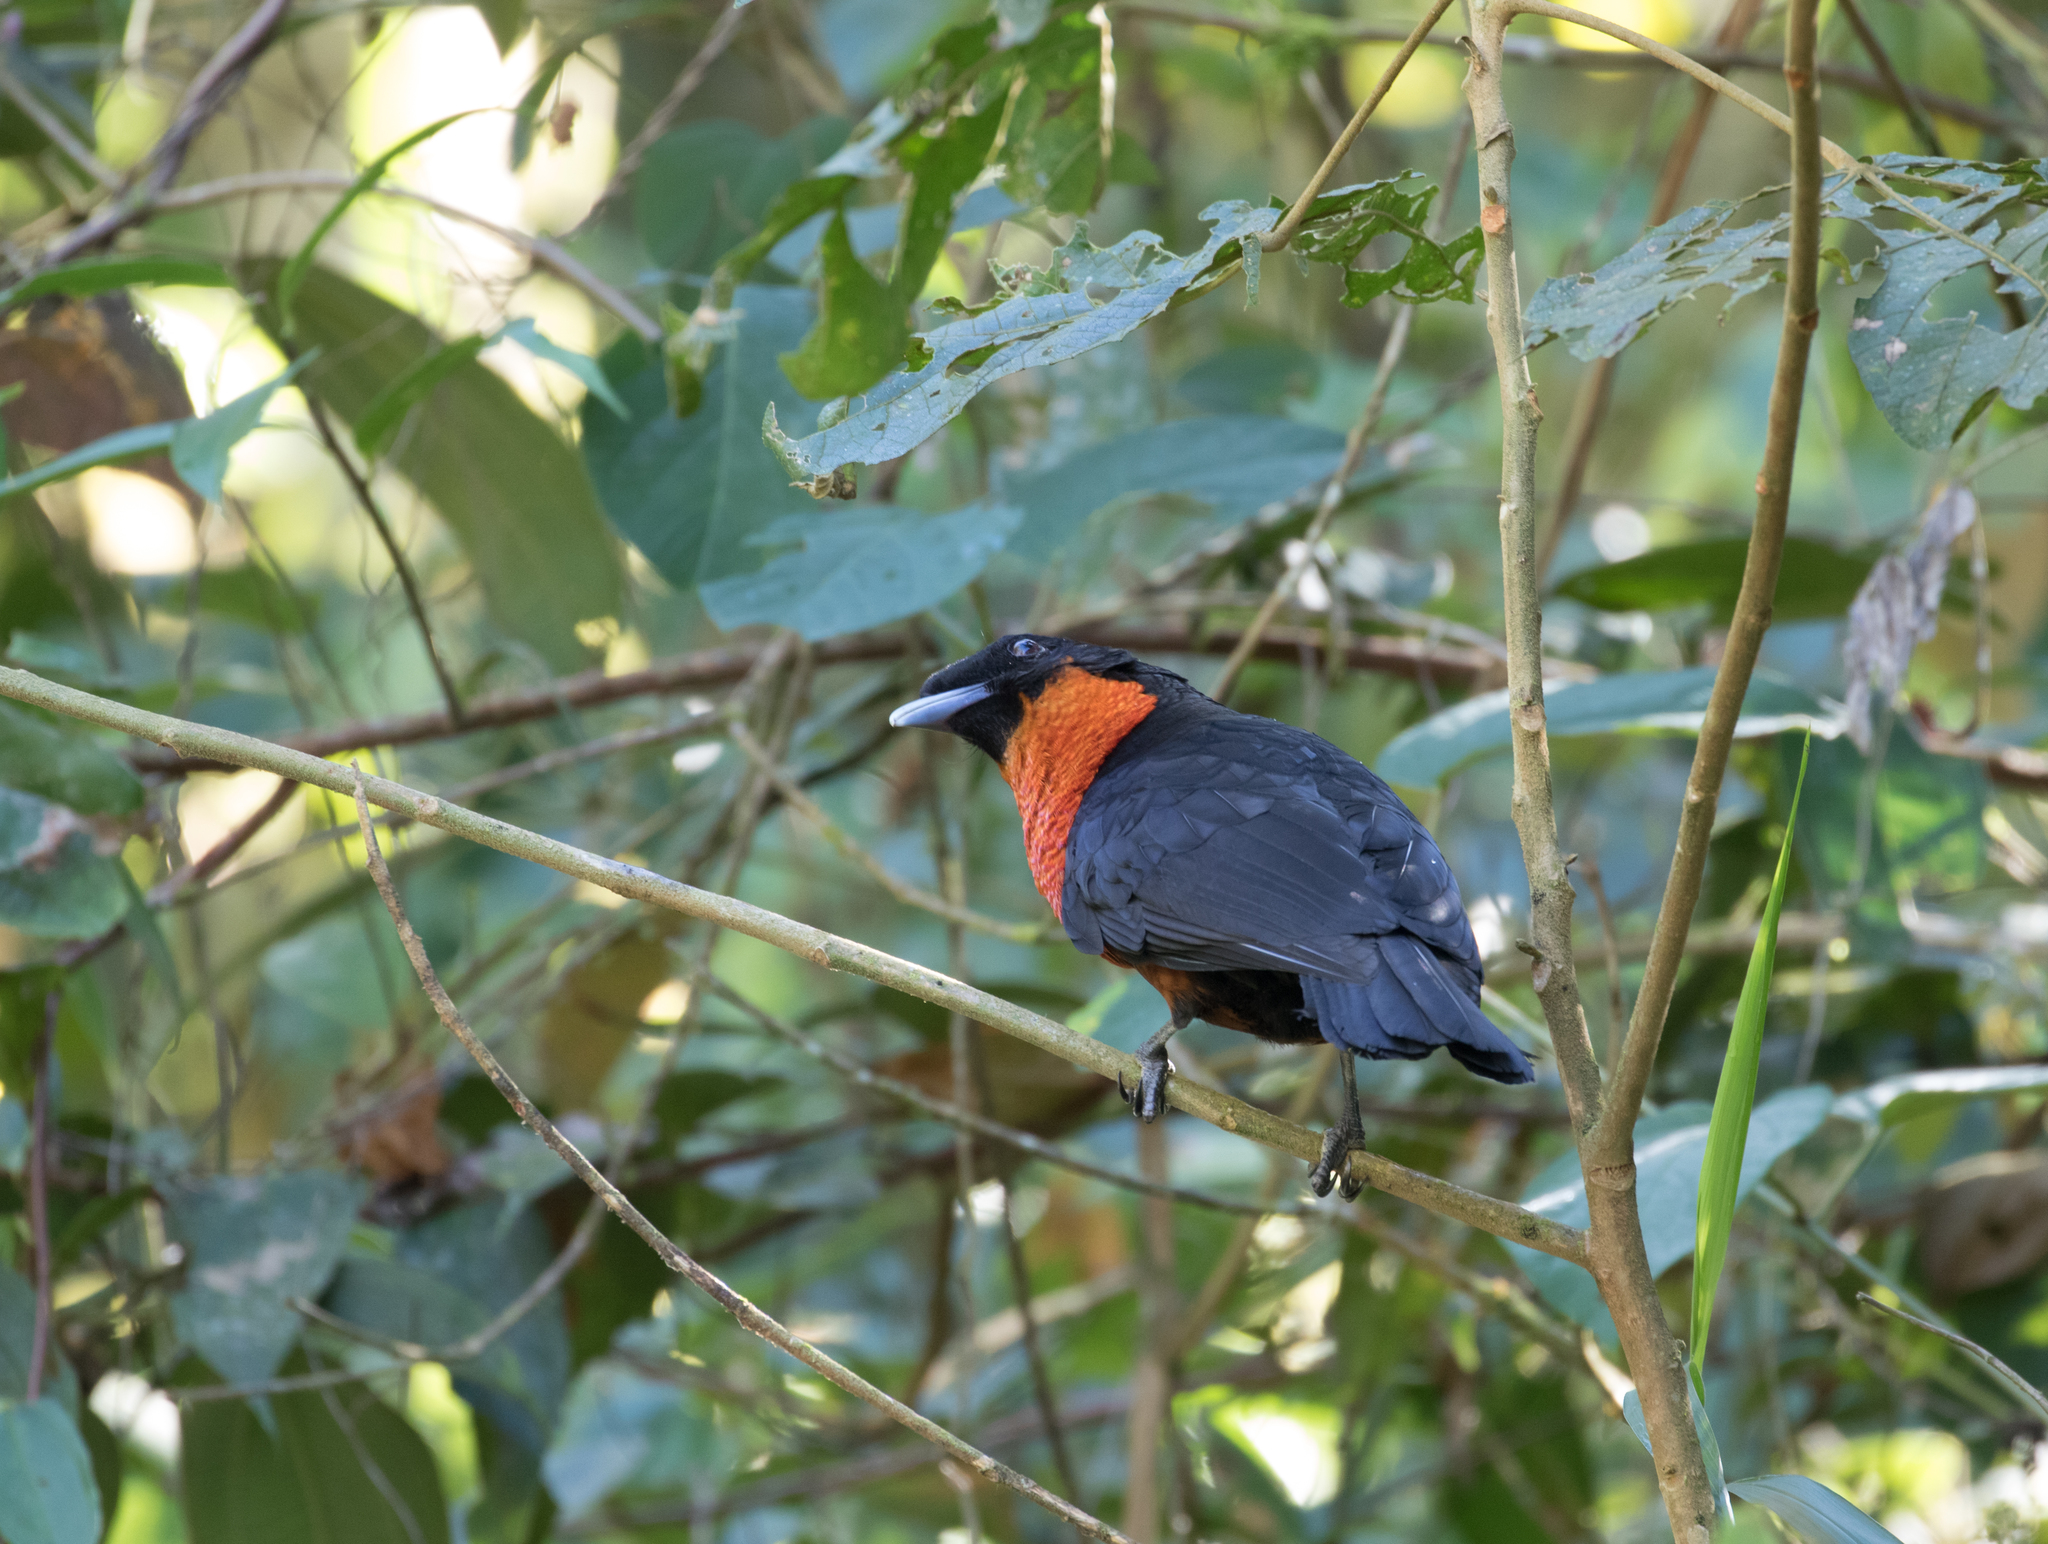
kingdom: Animalia
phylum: Chordata
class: Aves
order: Passeriformes
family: Cotingidae
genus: Pyroderus
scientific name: Pyroderus scutatus
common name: Red-ruffed fruitcrow
